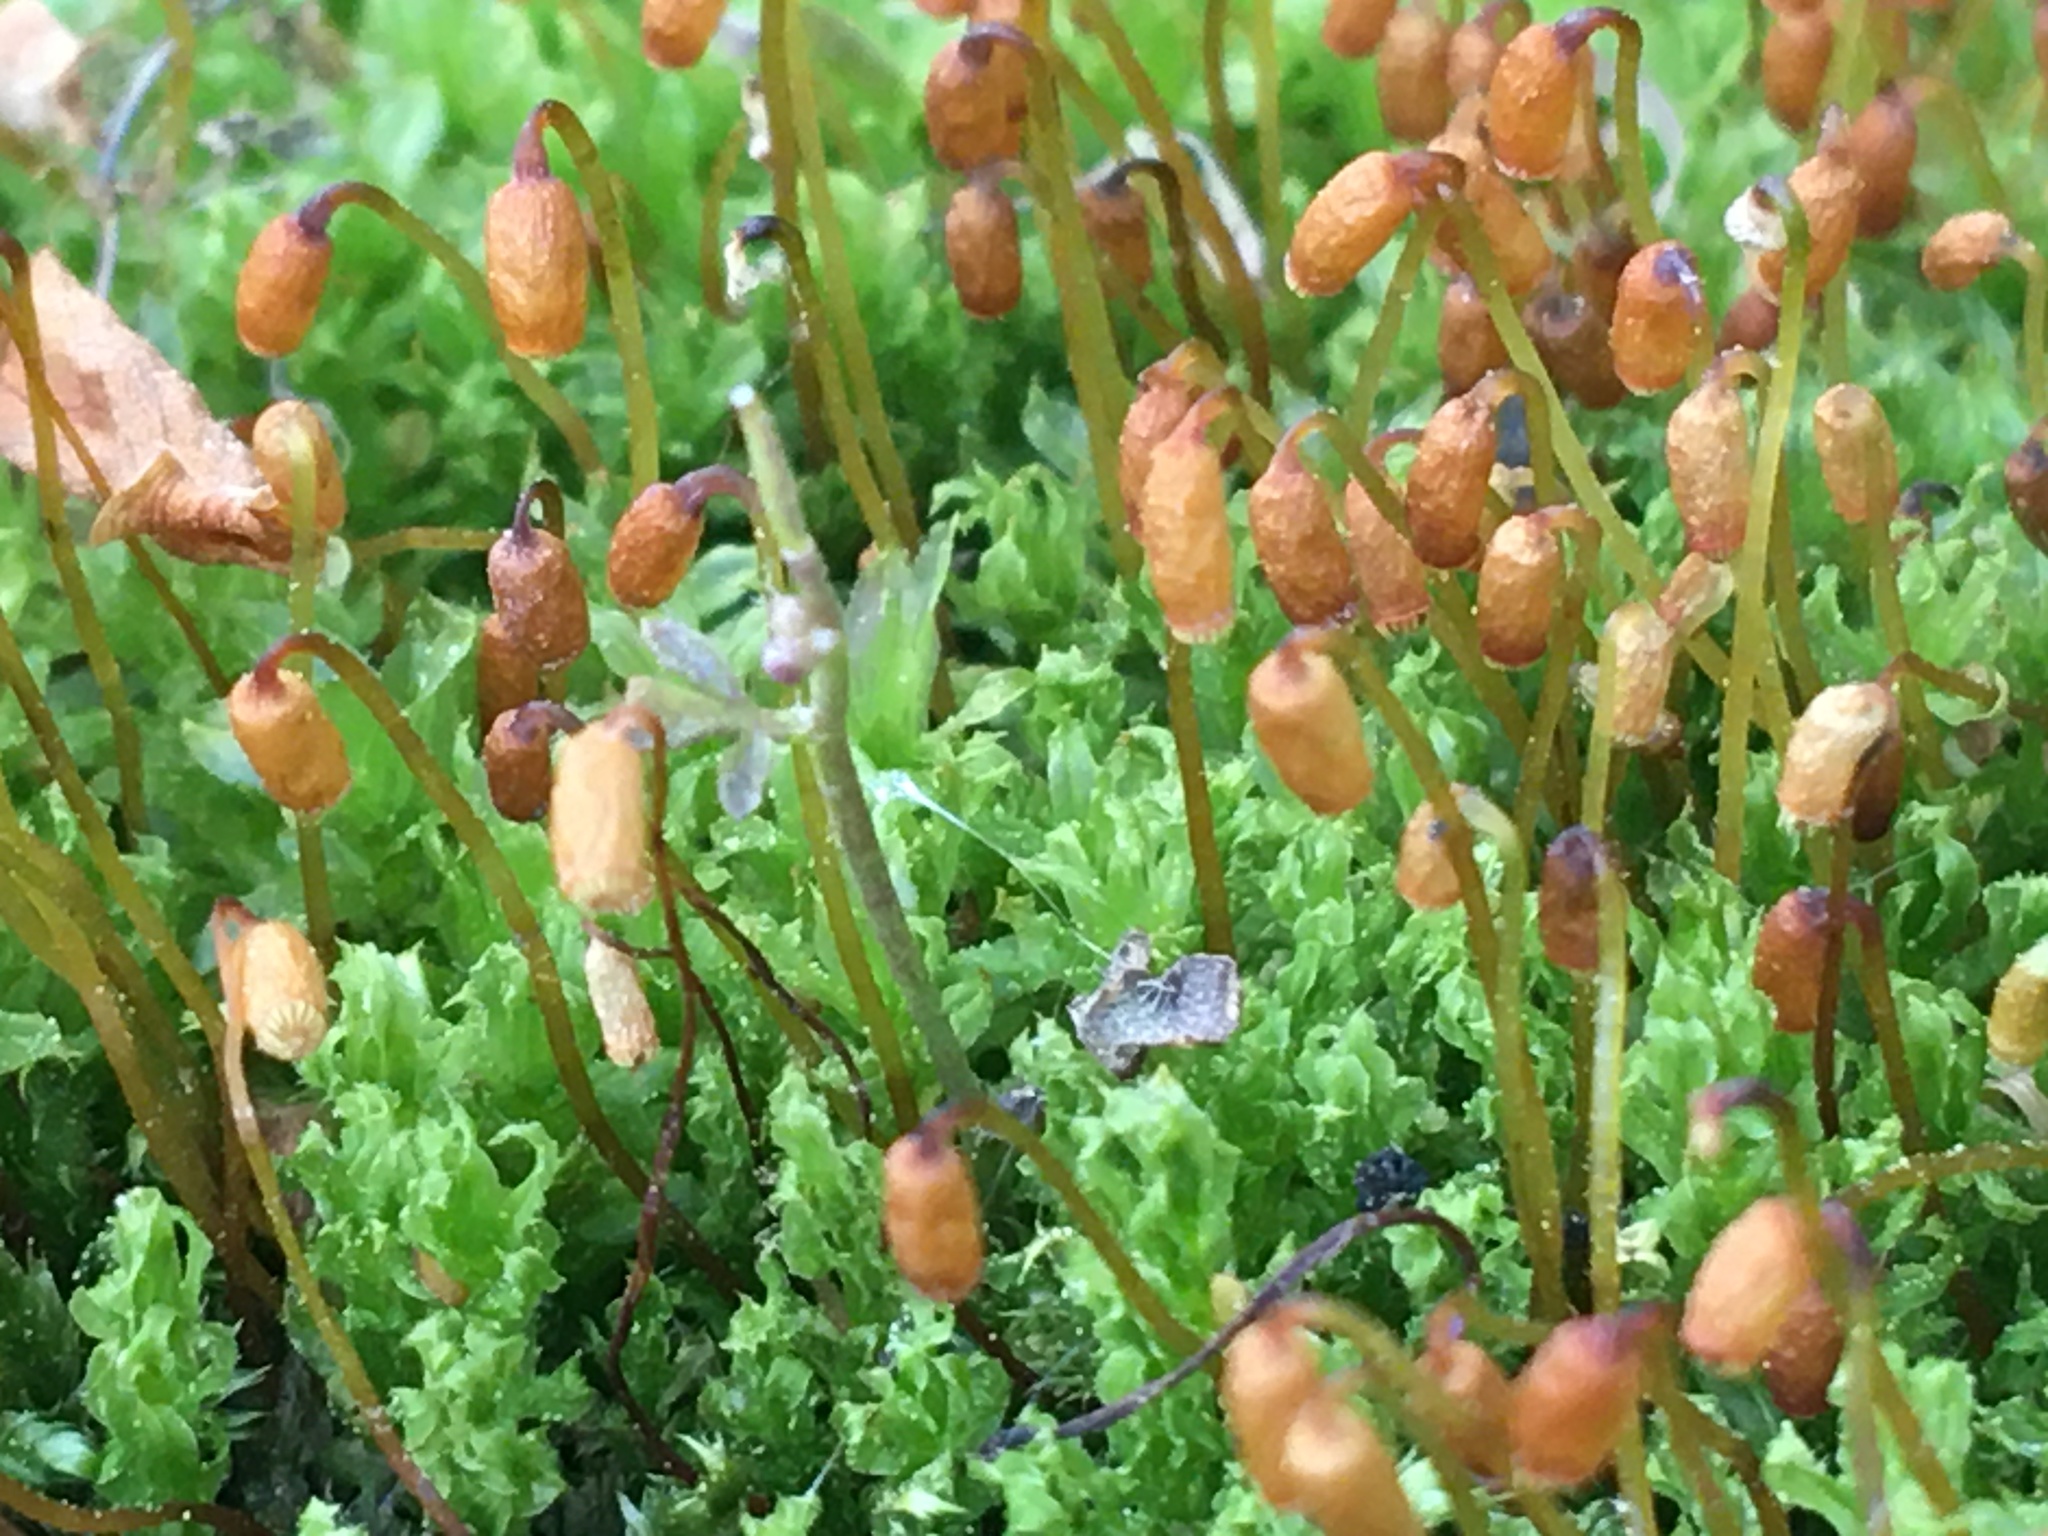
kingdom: Plantae
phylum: Bryophyta
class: Bryopsida
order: Bryales
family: Mniaceae
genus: Plagiomnium
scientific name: Plagiomnium cuspidatum
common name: Woodsy leafy moss
